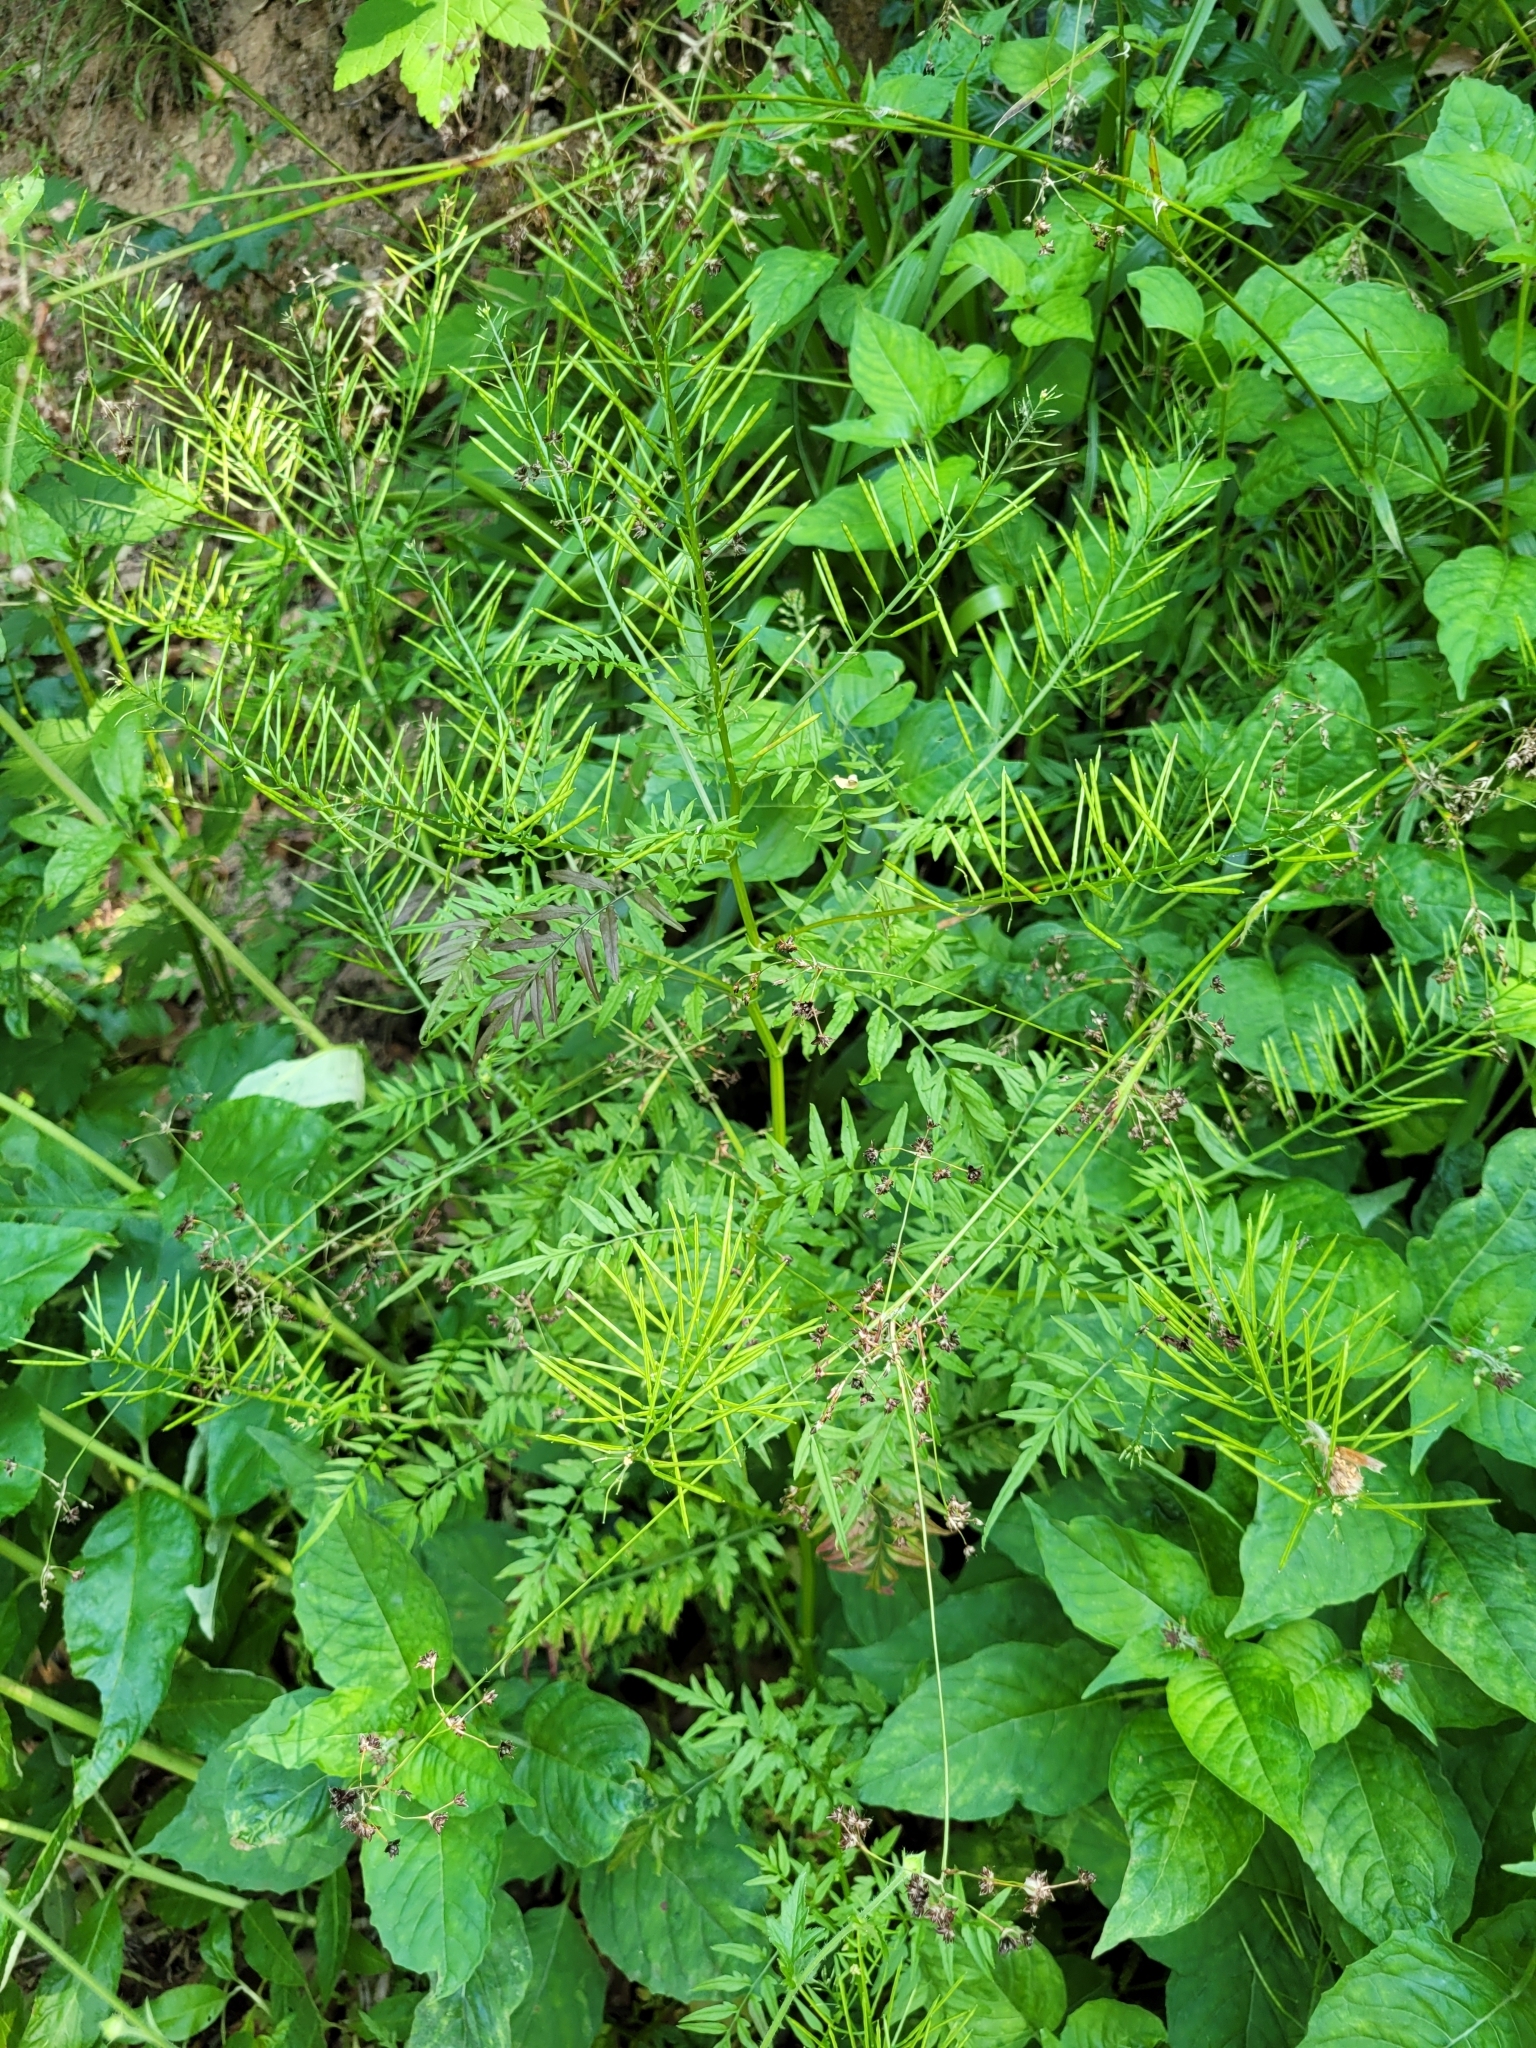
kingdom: Plantae
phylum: Tracheophyta
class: Magnoliopsida
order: Brassicales
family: Brassicaceae
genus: Cardamine
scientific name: Cardamine impatiens
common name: Narrow-leaved bitter-cress
